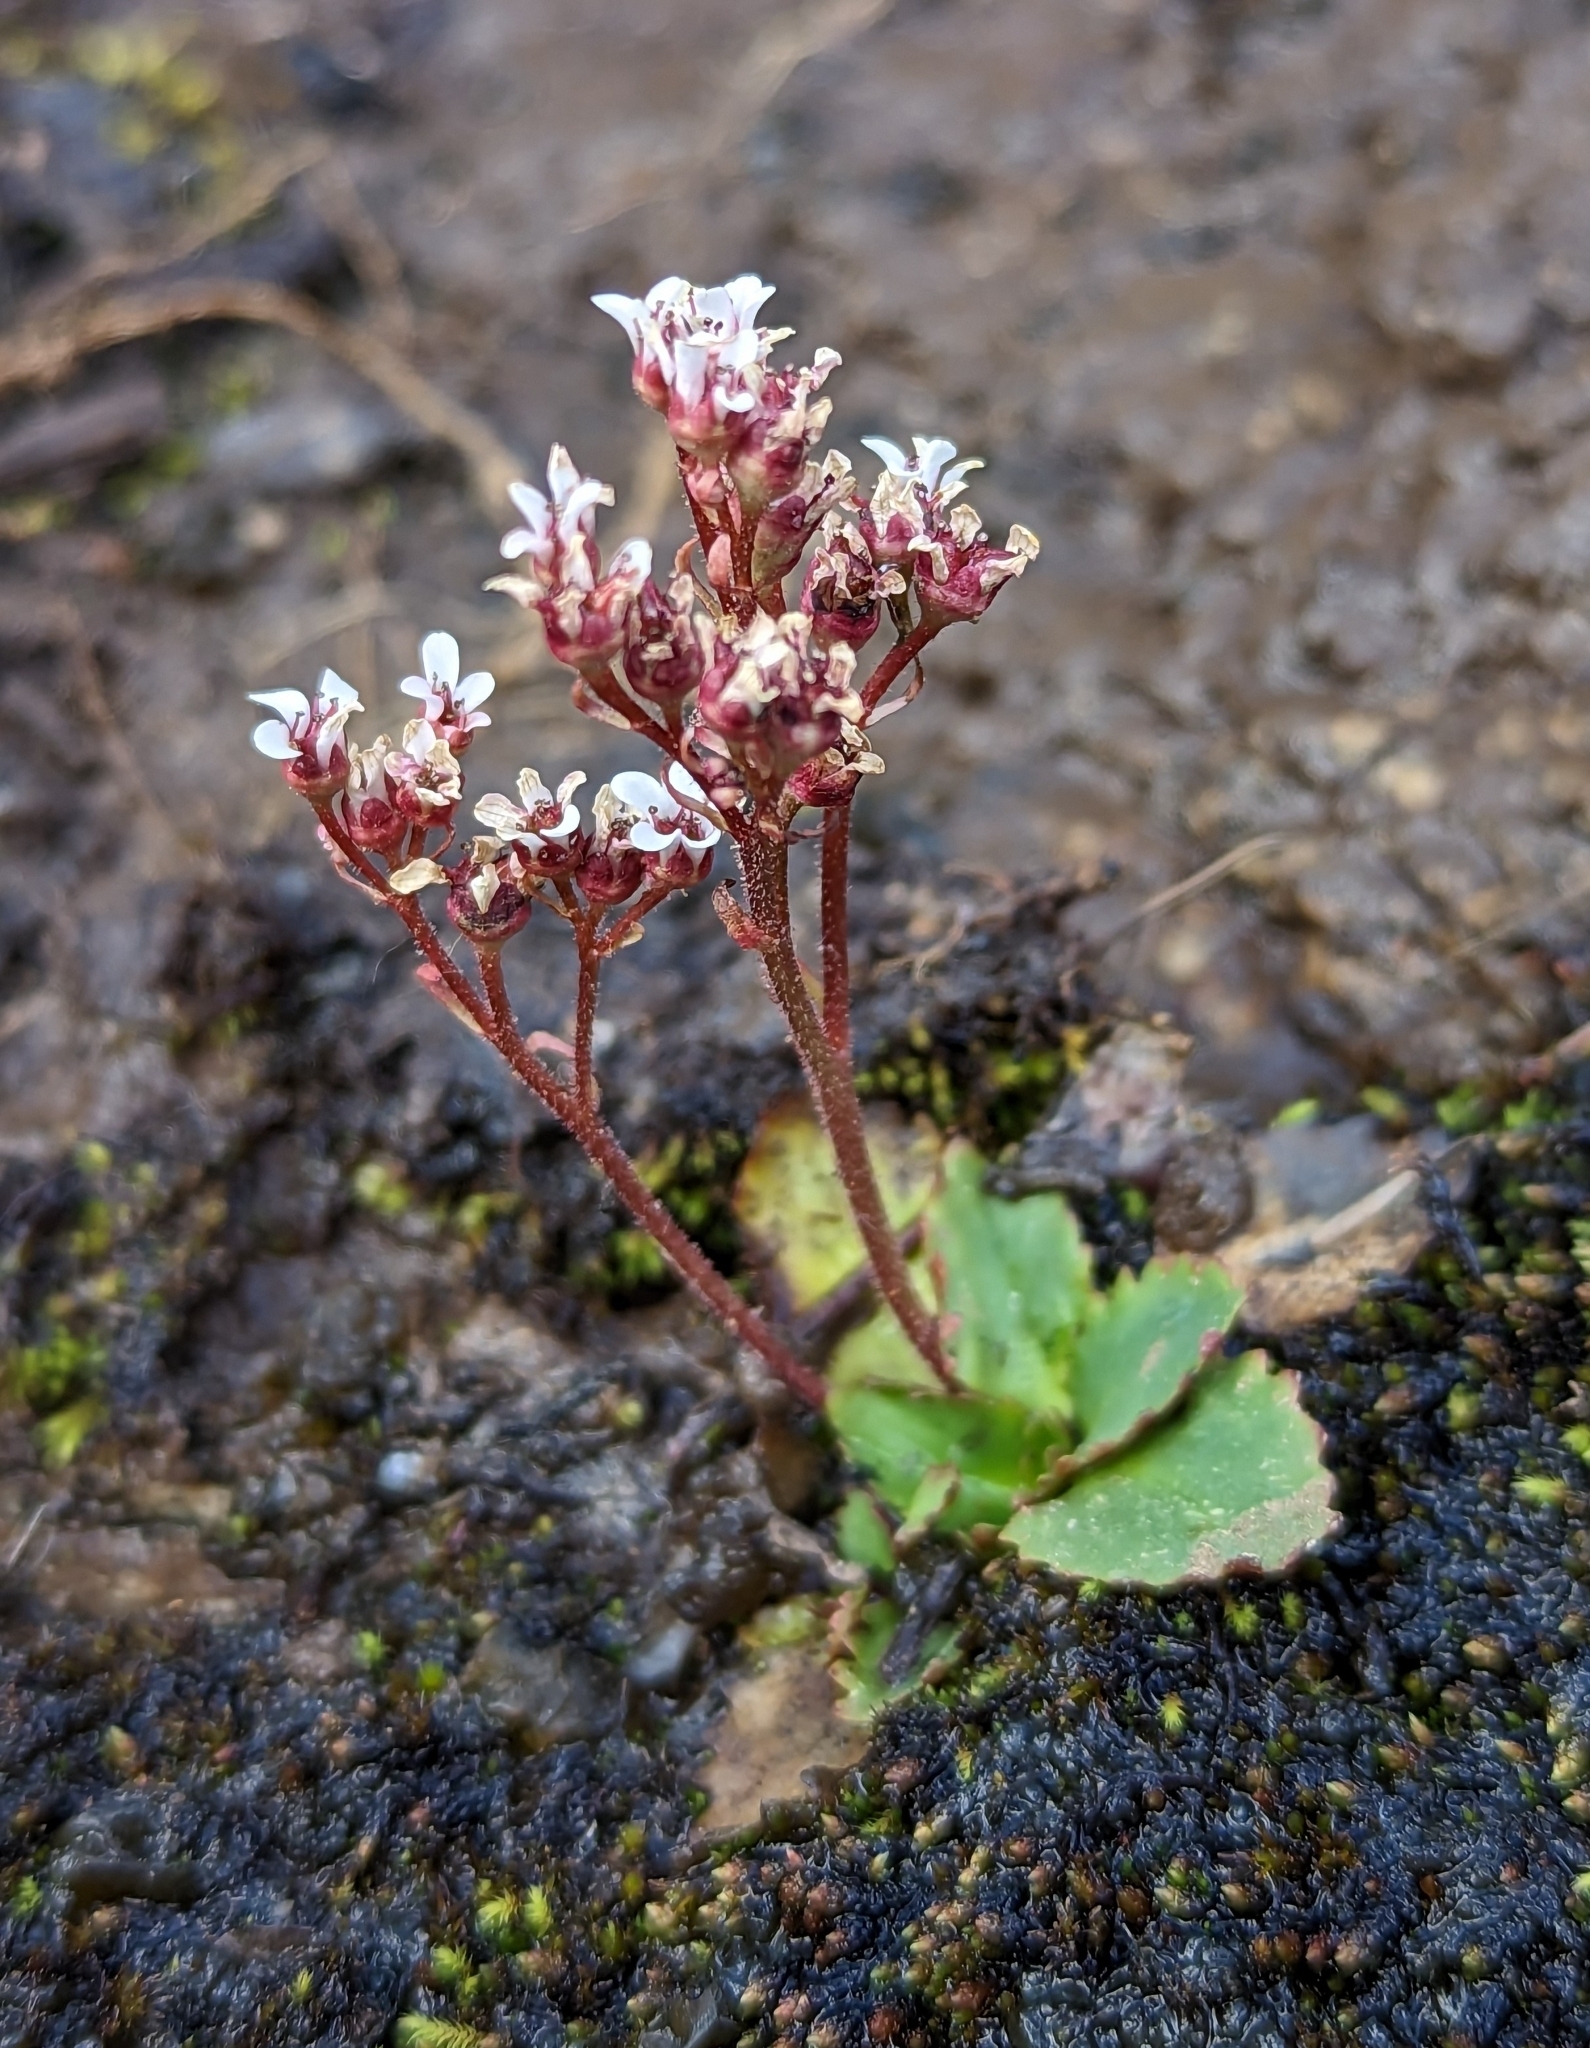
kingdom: Plantae
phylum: Tracheophyta
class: Magnoliopsida
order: Saxifragales
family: Saxifragaceae
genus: Micranthes
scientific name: Micranthes eriophora
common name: Redfuzz saxifrage
